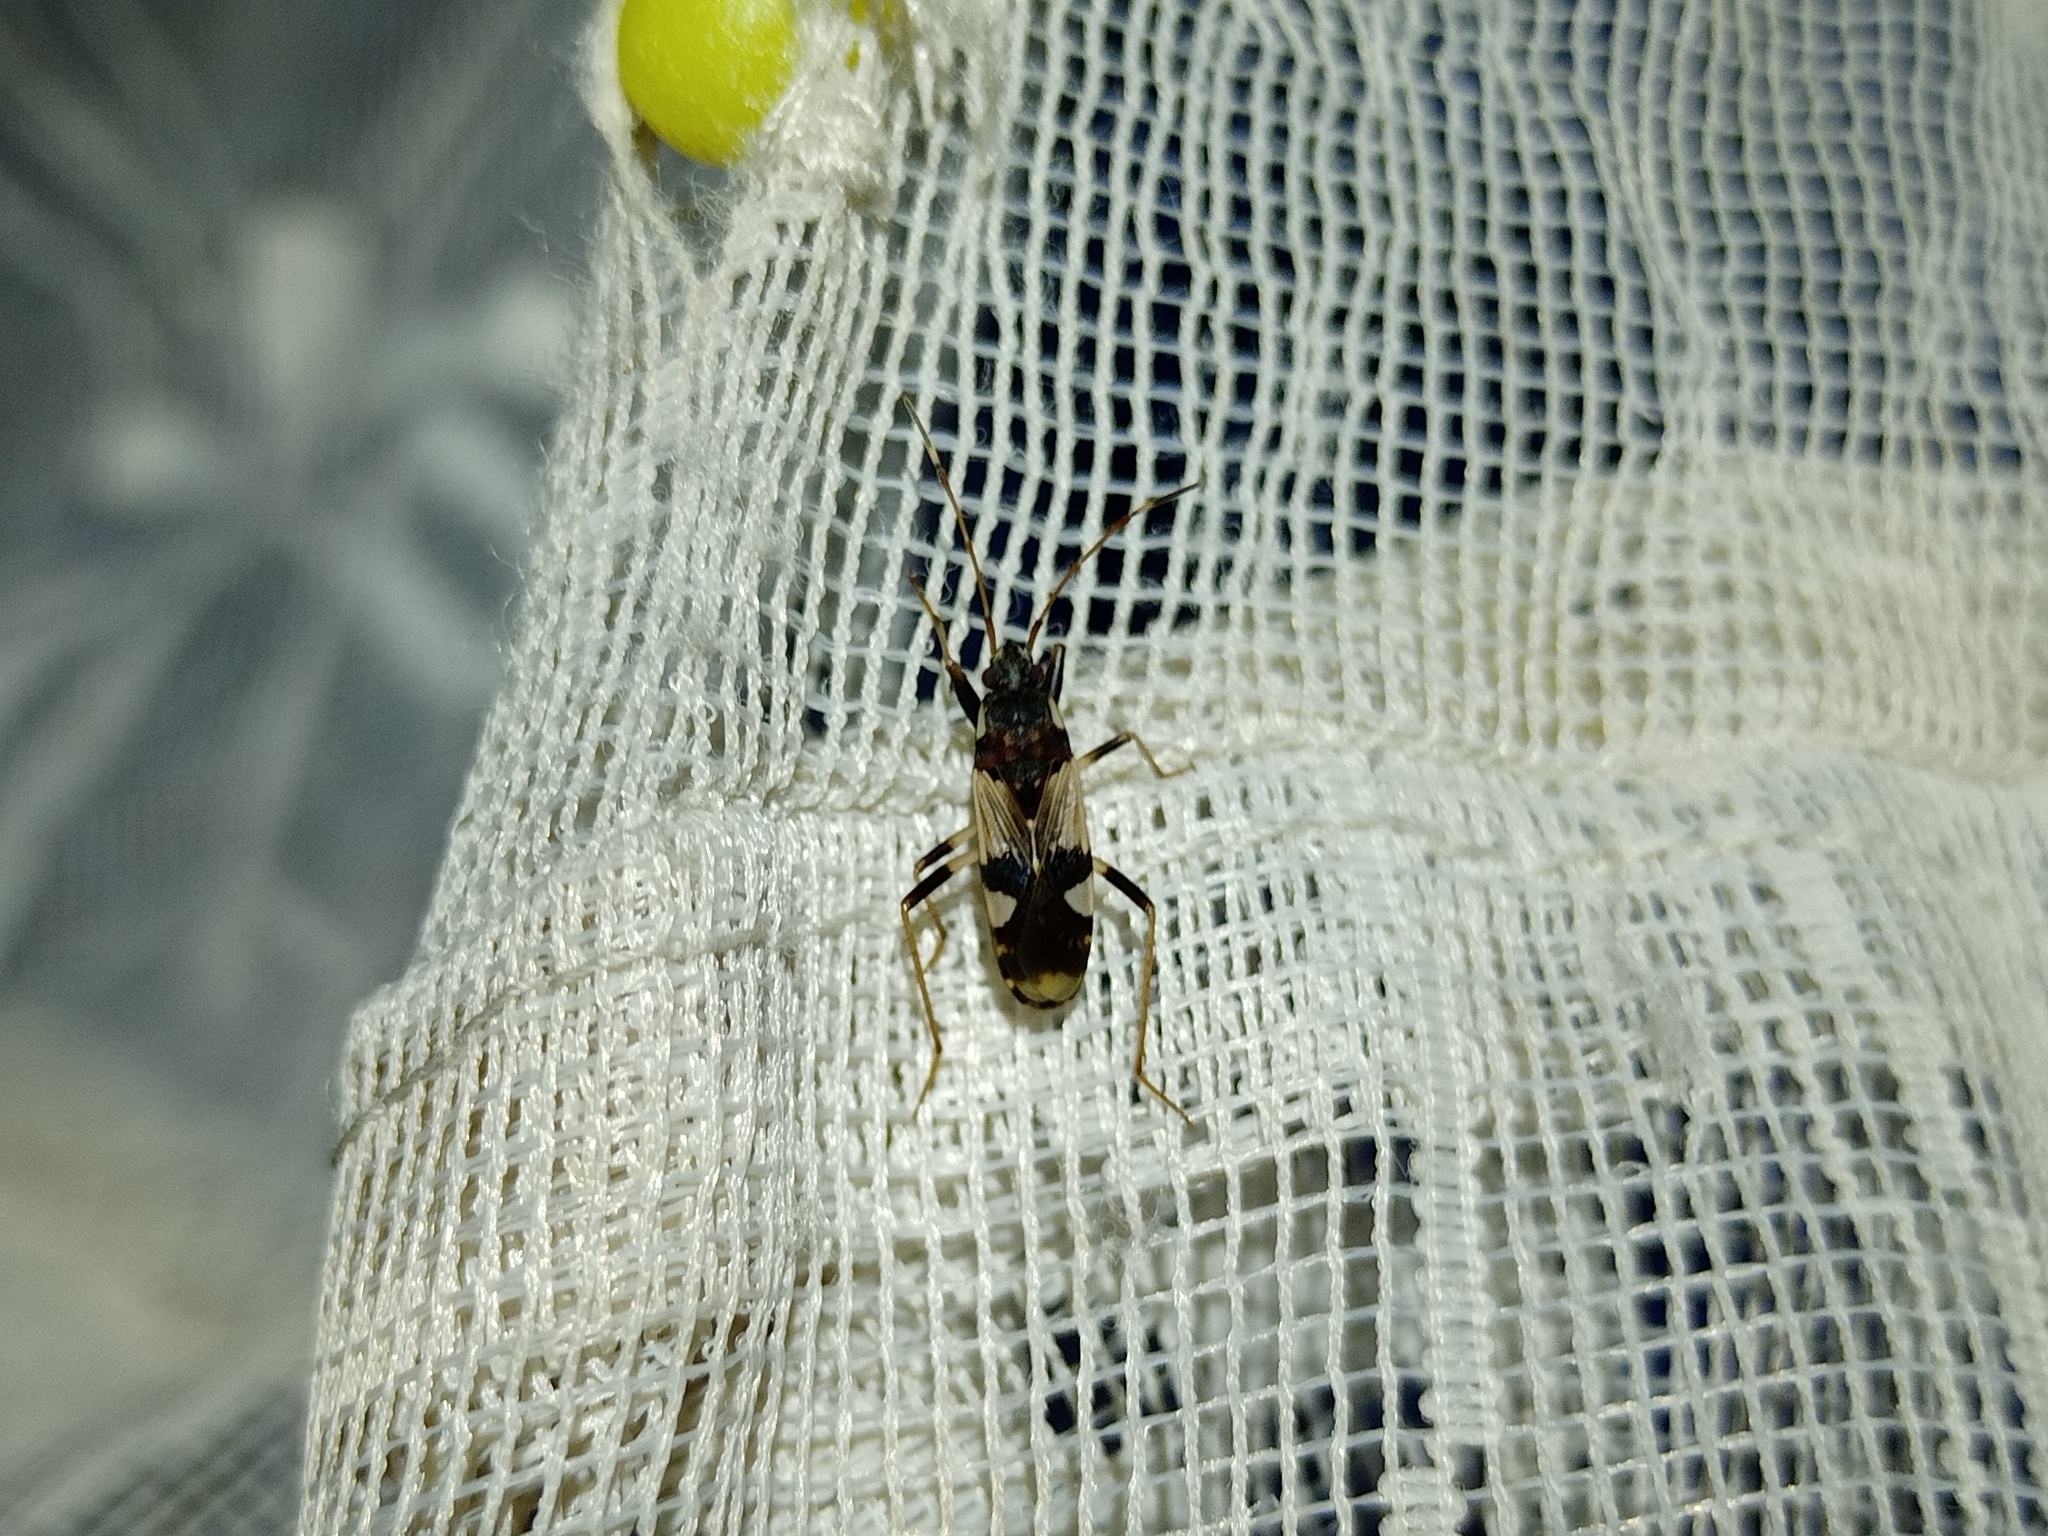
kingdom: Animalia
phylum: Arthropoda
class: Insecta
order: Hemiptera
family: Rhyparochromidae
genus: Dieuches
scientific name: Dieuches schmitzi
